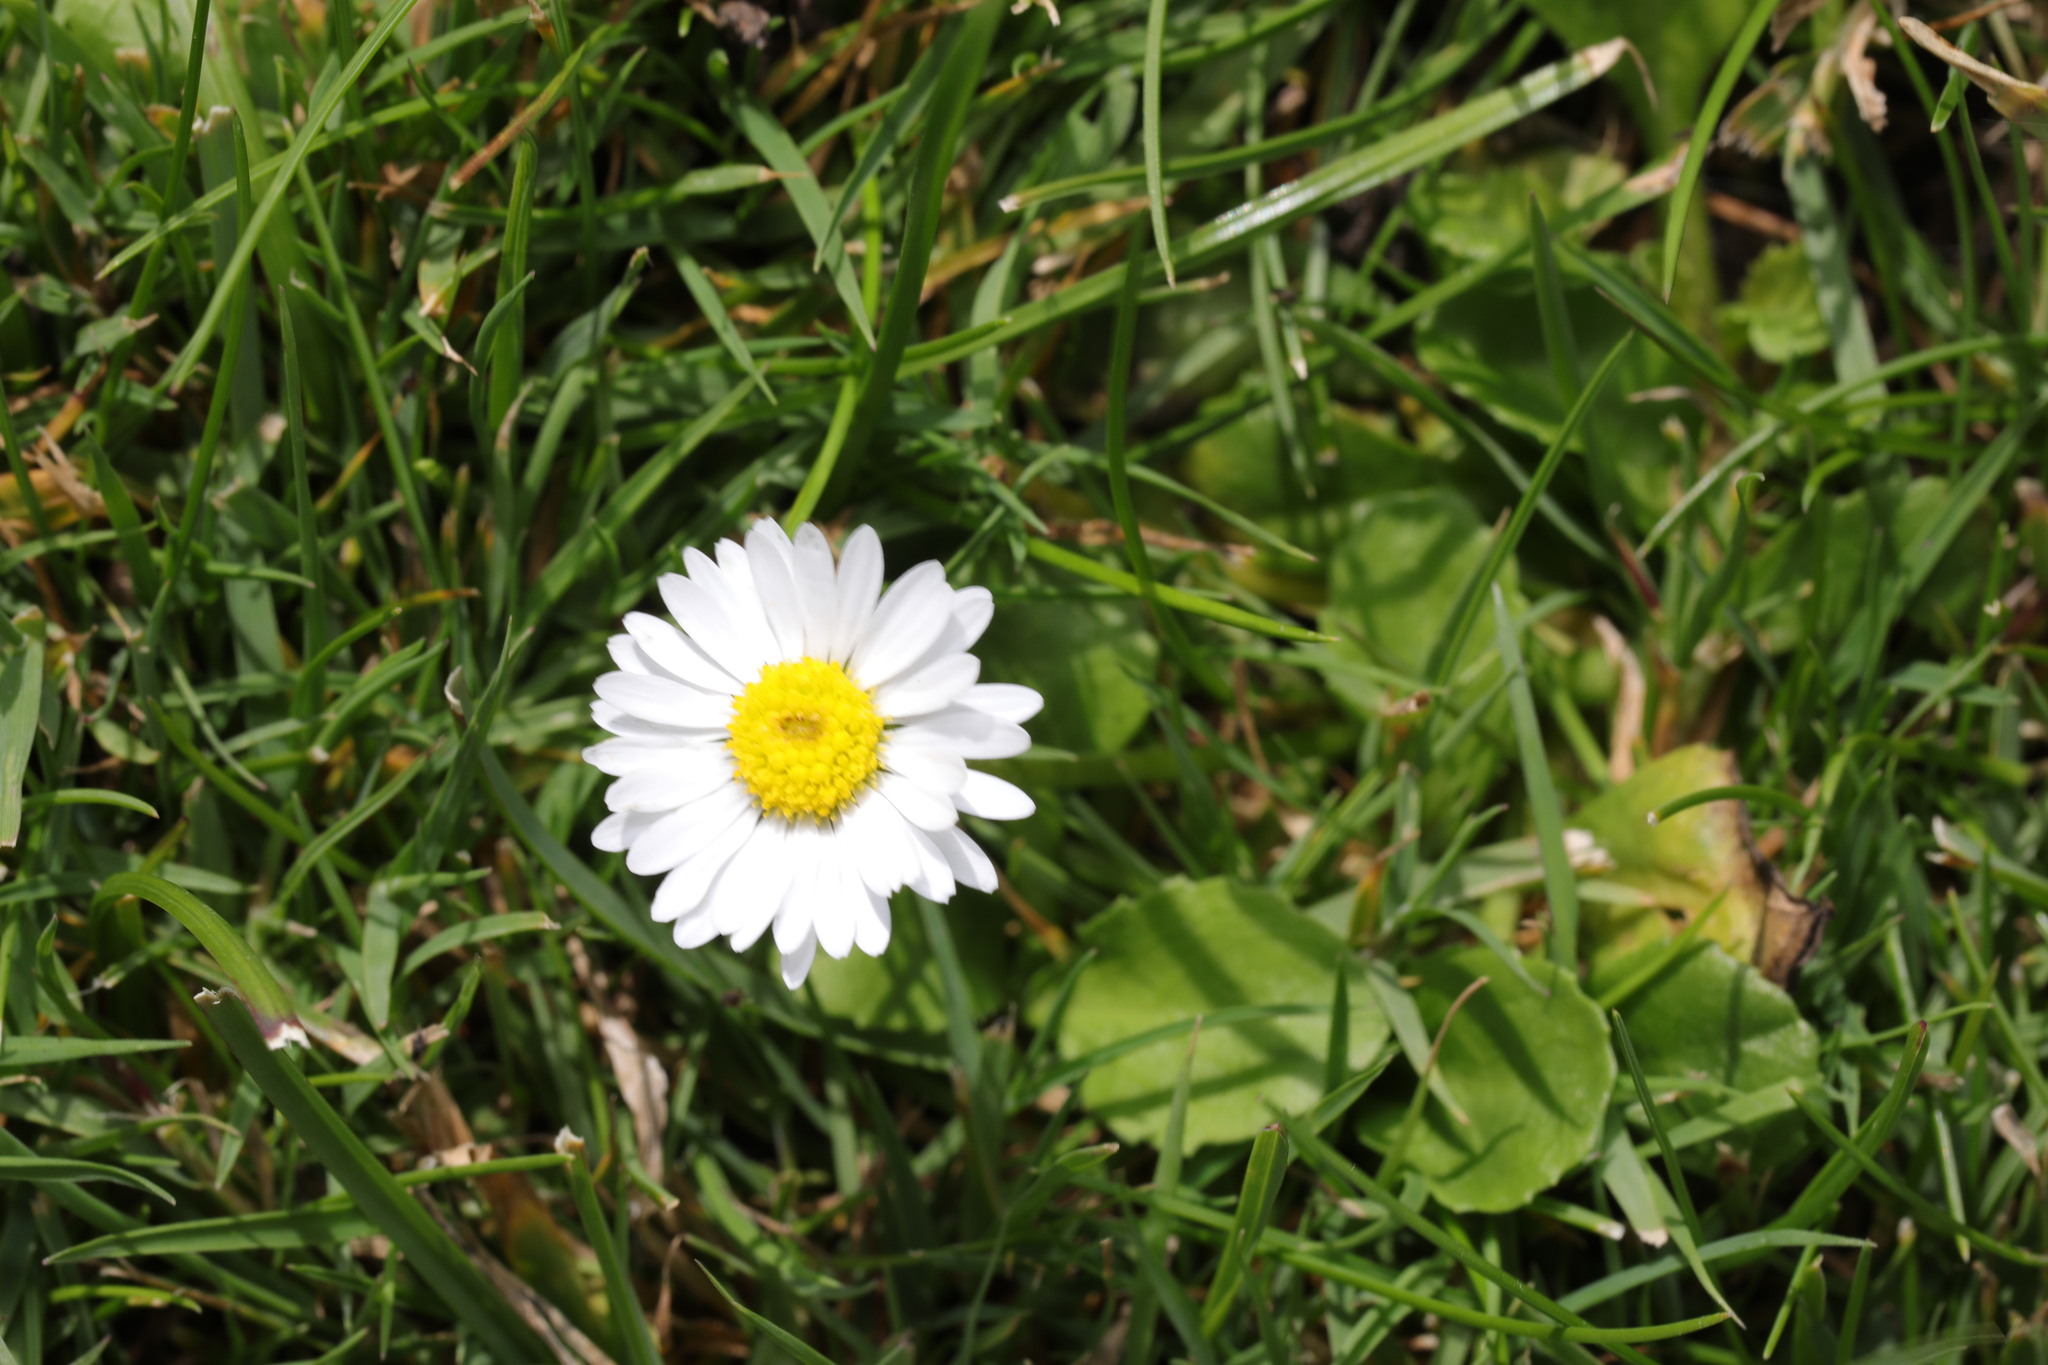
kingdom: Plantae
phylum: Tracheophyta
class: Magnoliopsida
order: Asterales
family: Asteraceae
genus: Bellis
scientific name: Bellis perennis
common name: Lawndaisy
